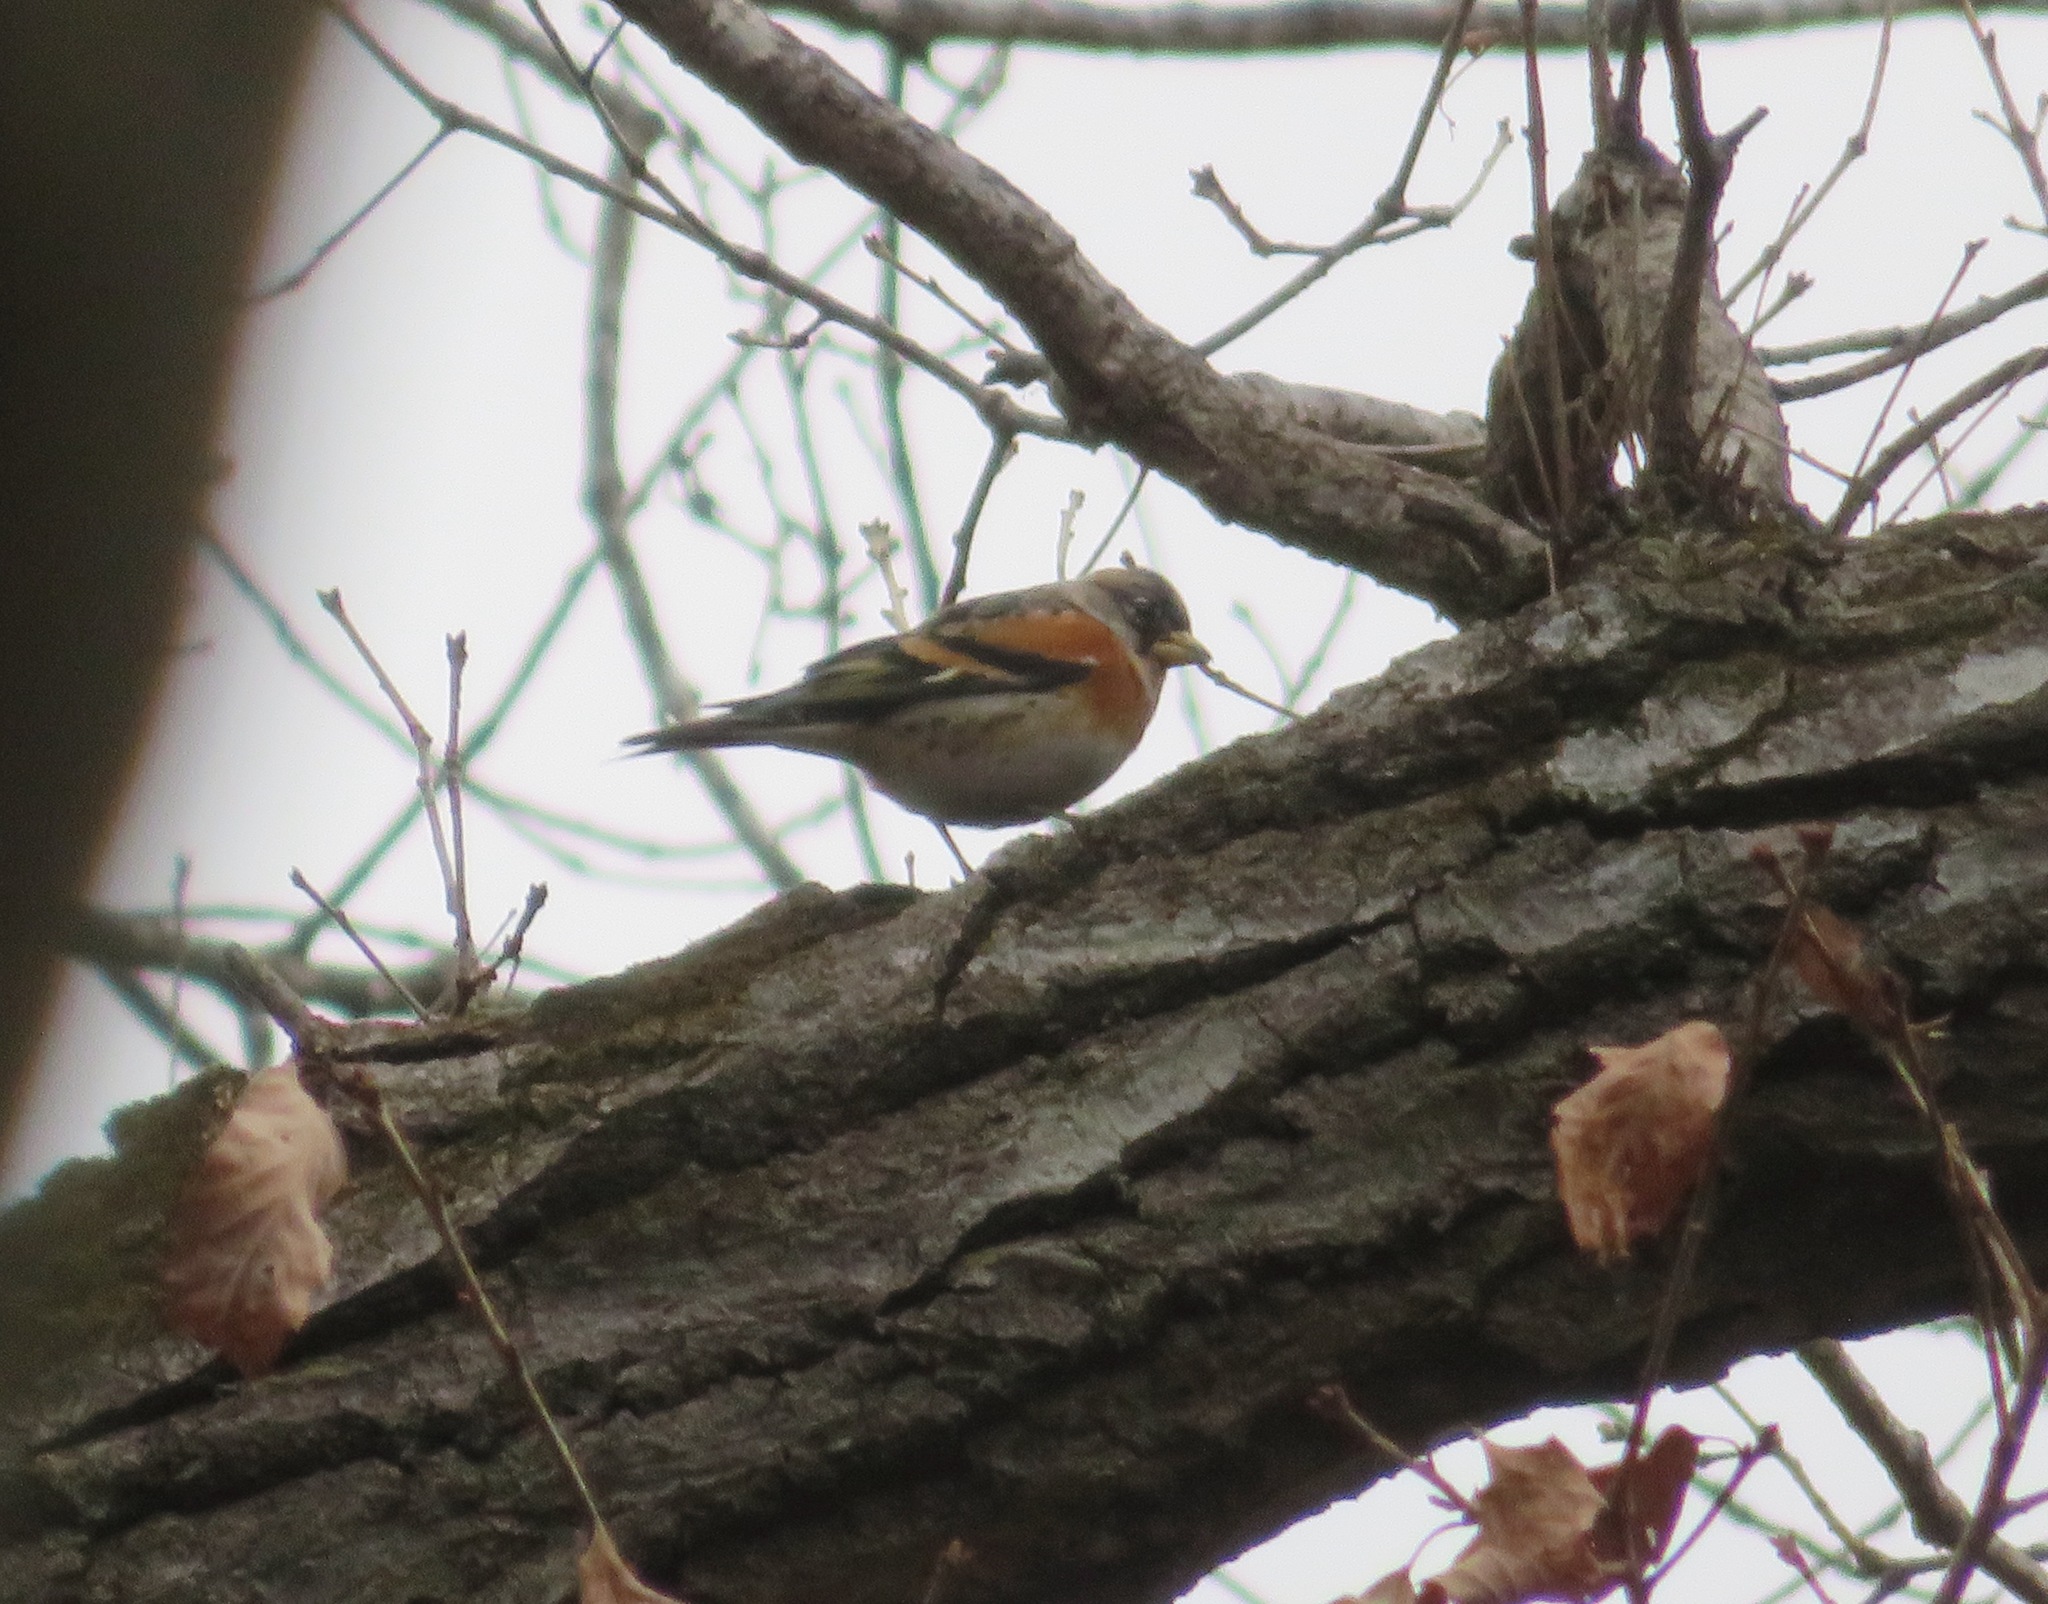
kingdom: Animalia
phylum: Chordata
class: Aves
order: Passeriformes
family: Fringillidae
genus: Fringilla
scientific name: Fringilla montifringilla
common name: Brambling
